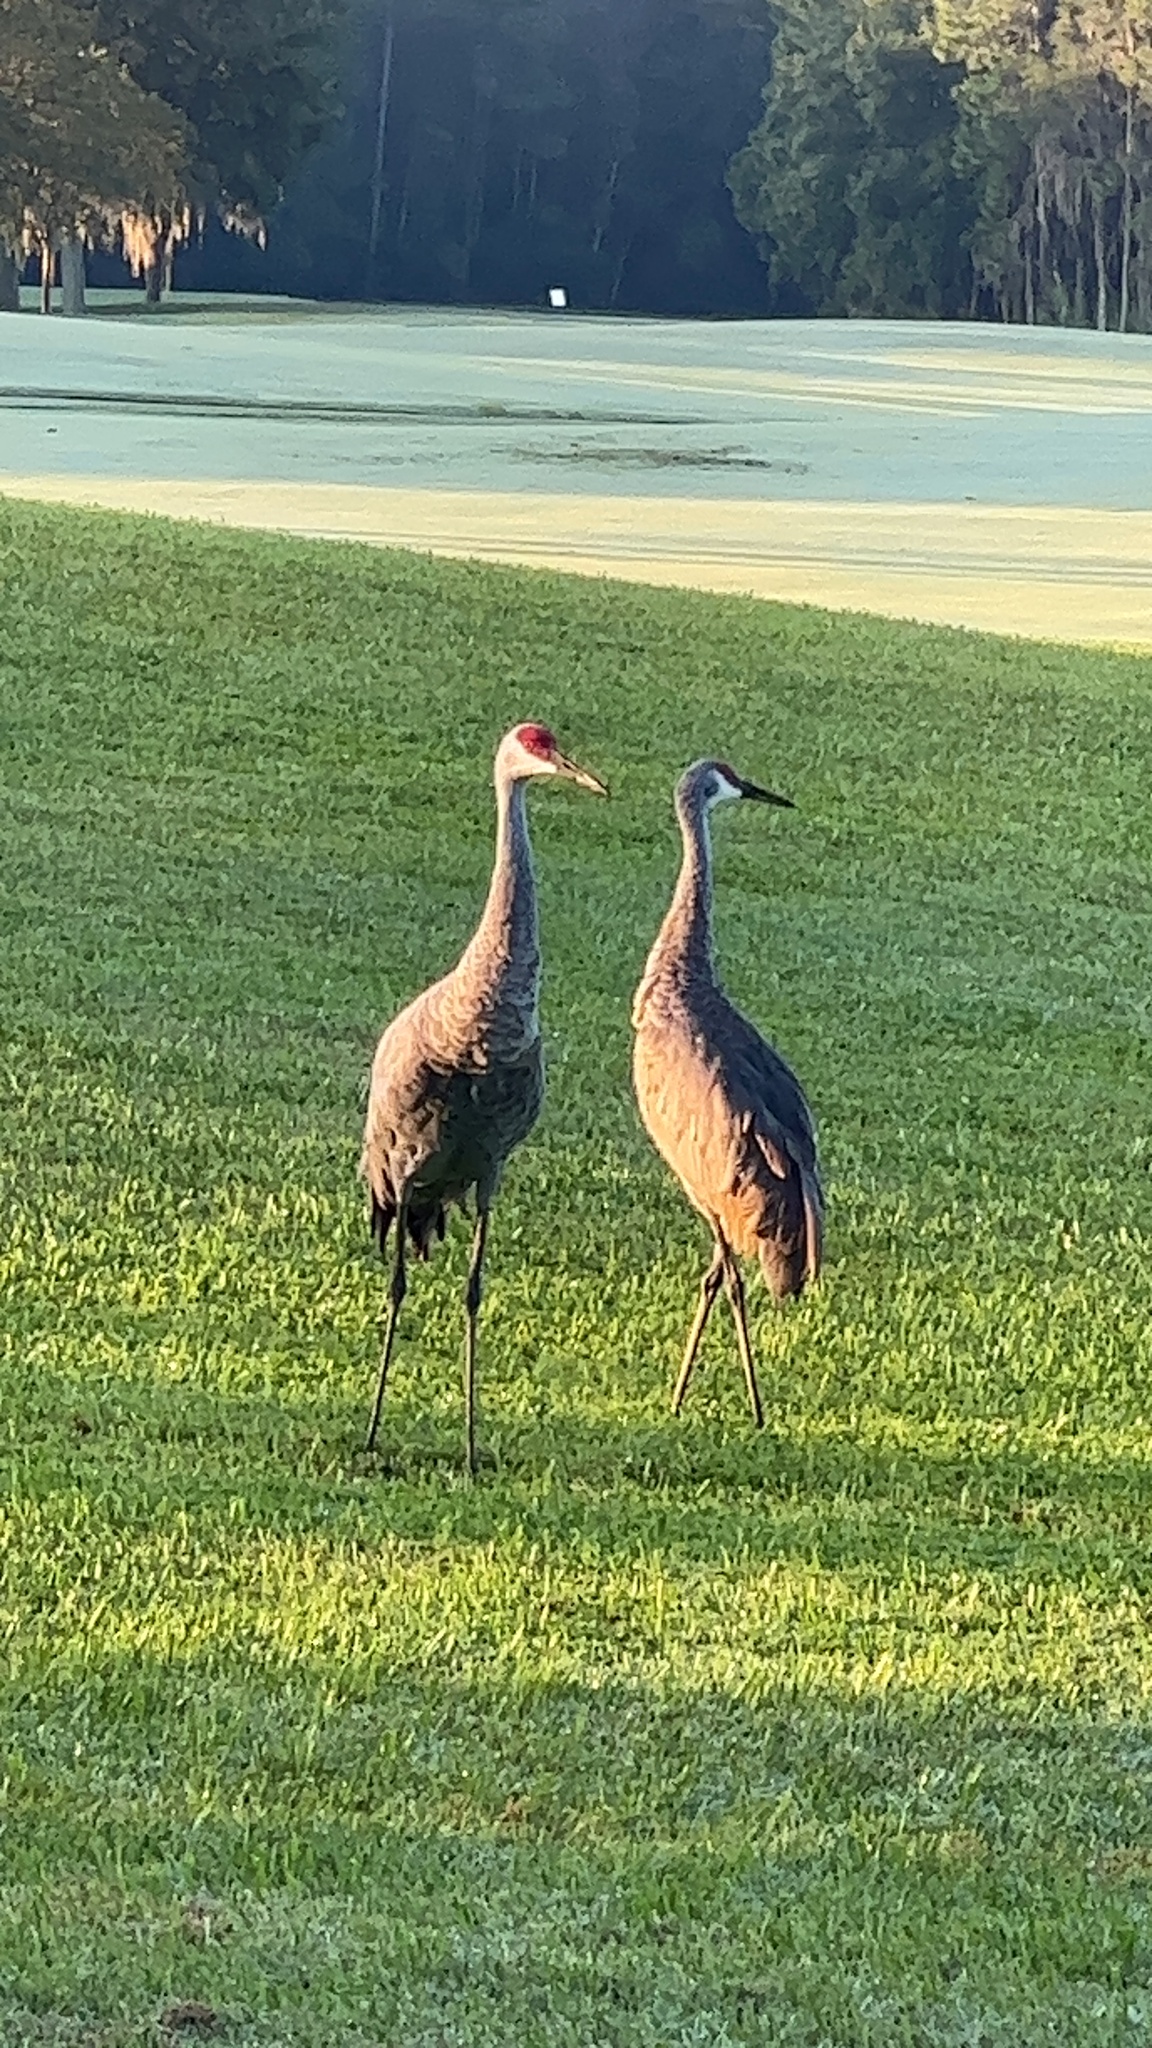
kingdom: Animalia
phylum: Chordata
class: Aves
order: Gruiformes
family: Gruidae
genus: Grus
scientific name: Grus canadensis
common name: Sandhill crane
